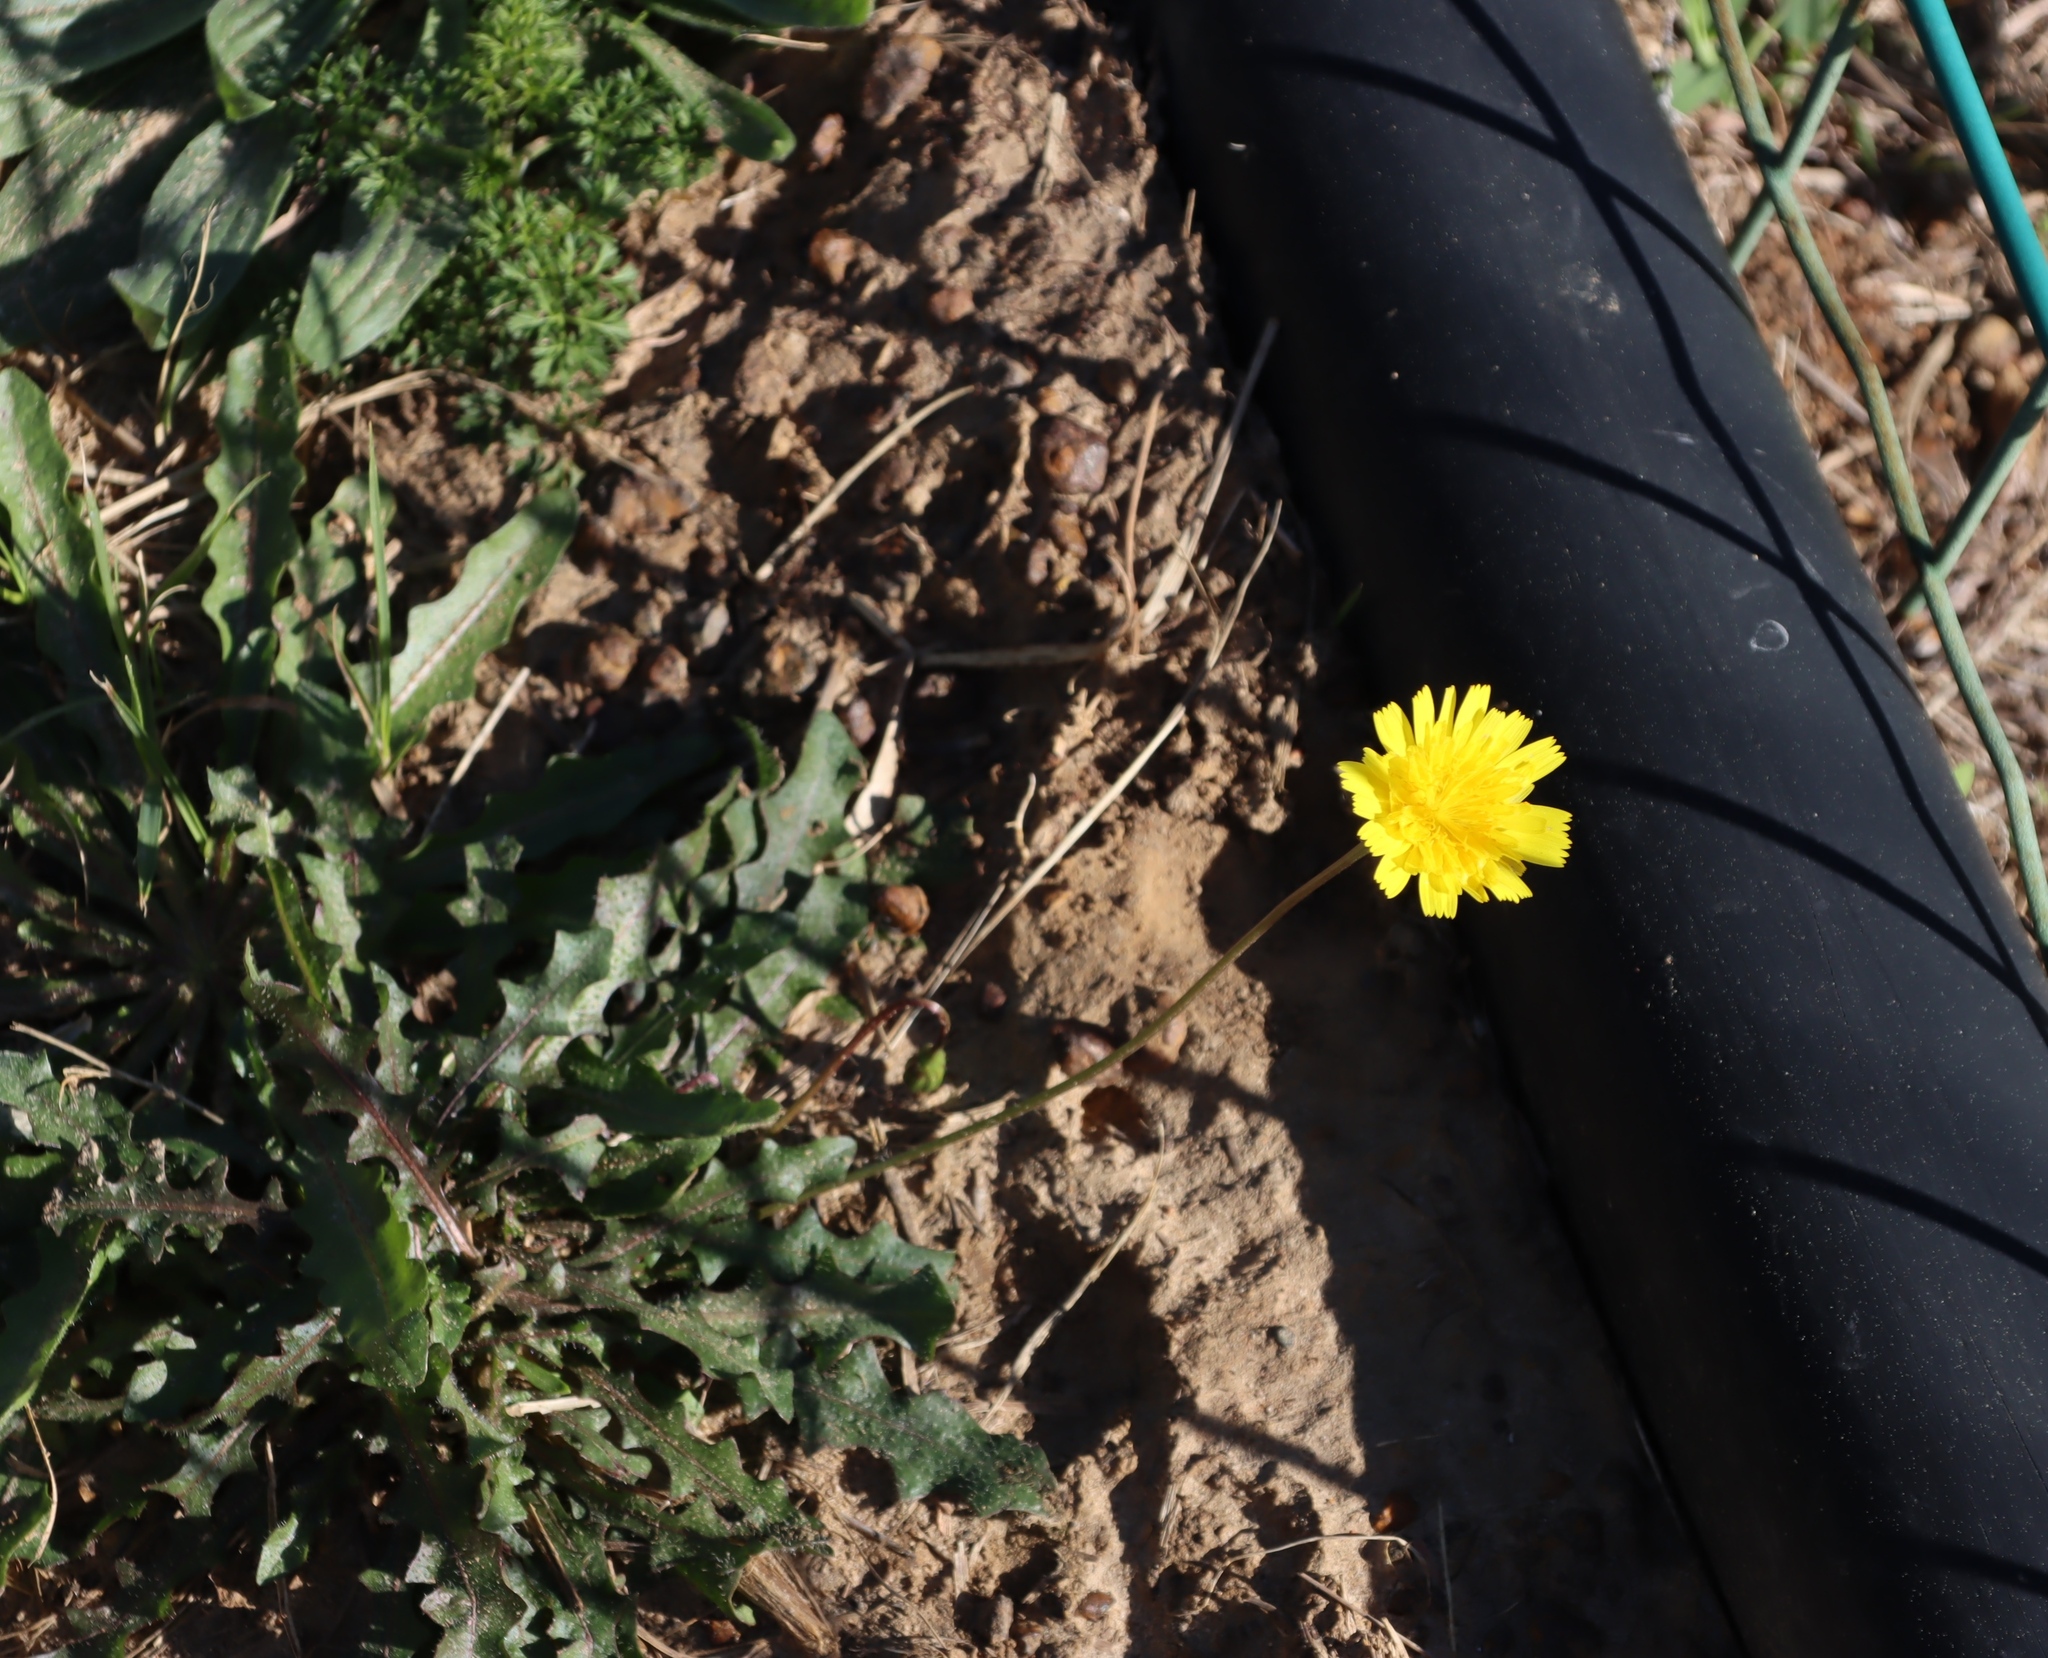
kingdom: Plantae
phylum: Tracheophyta
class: Magnoliopsida
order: Asterales
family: Asteraceae
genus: Hypochaeris
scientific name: Hypochaeris radicata
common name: Flatweed
